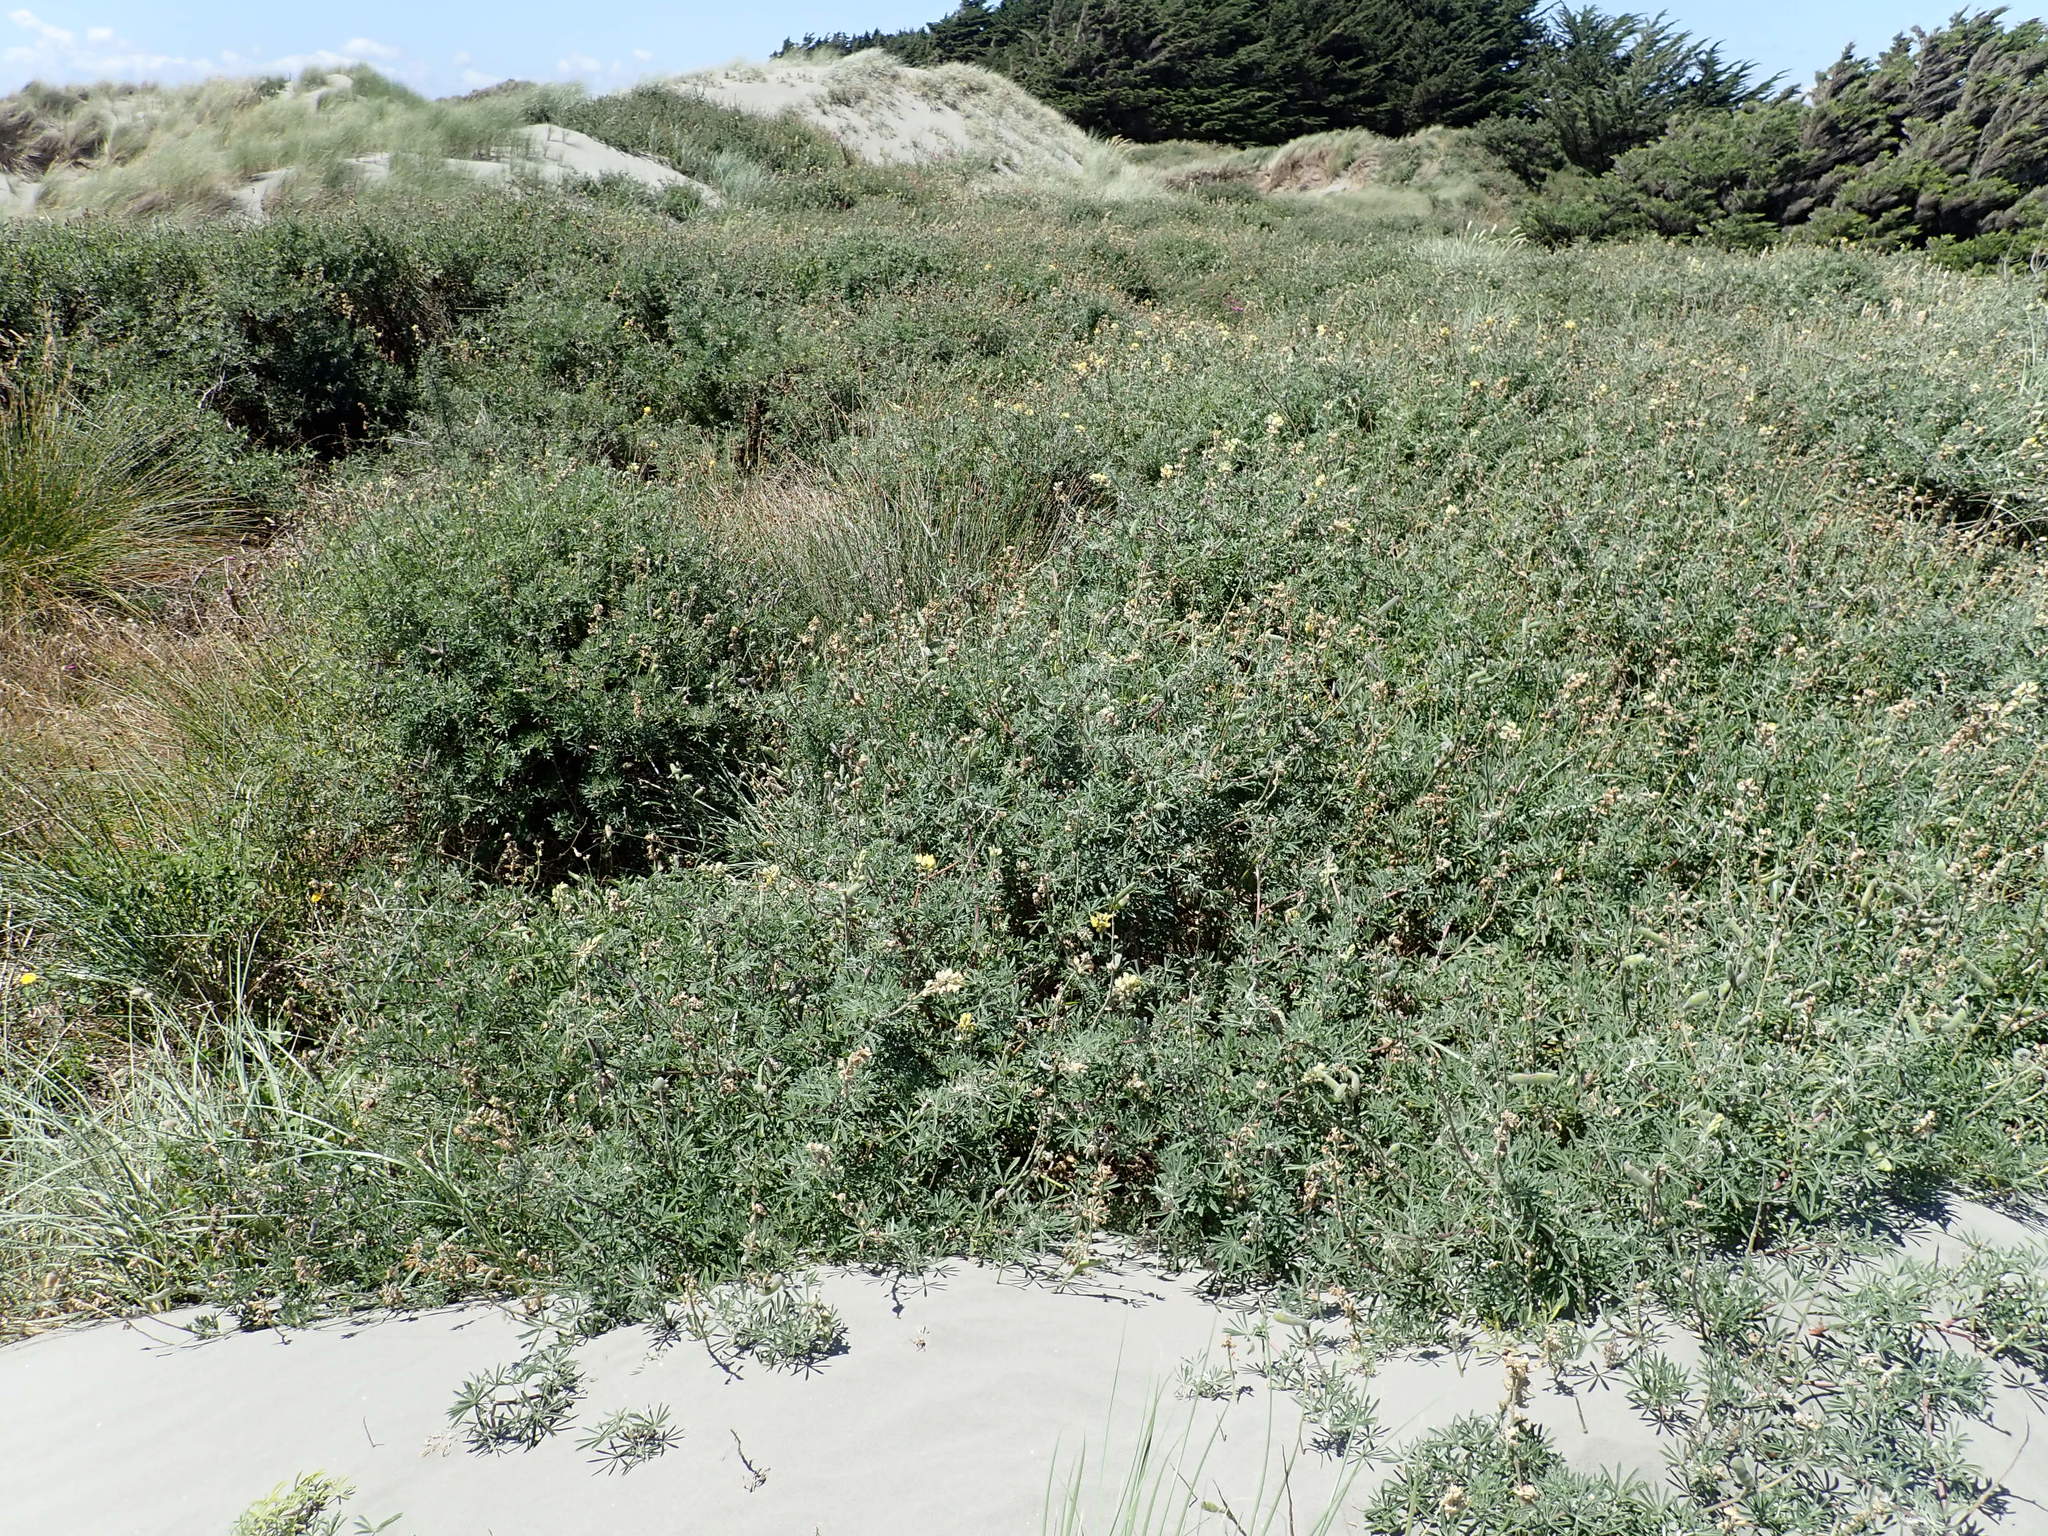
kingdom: Plantae
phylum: Tracheophyta
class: Magnoliopsida
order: Fabales
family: Fabaceae
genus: Lupinus
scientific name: Lupinus arboreus
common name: Yellow bush lupine
